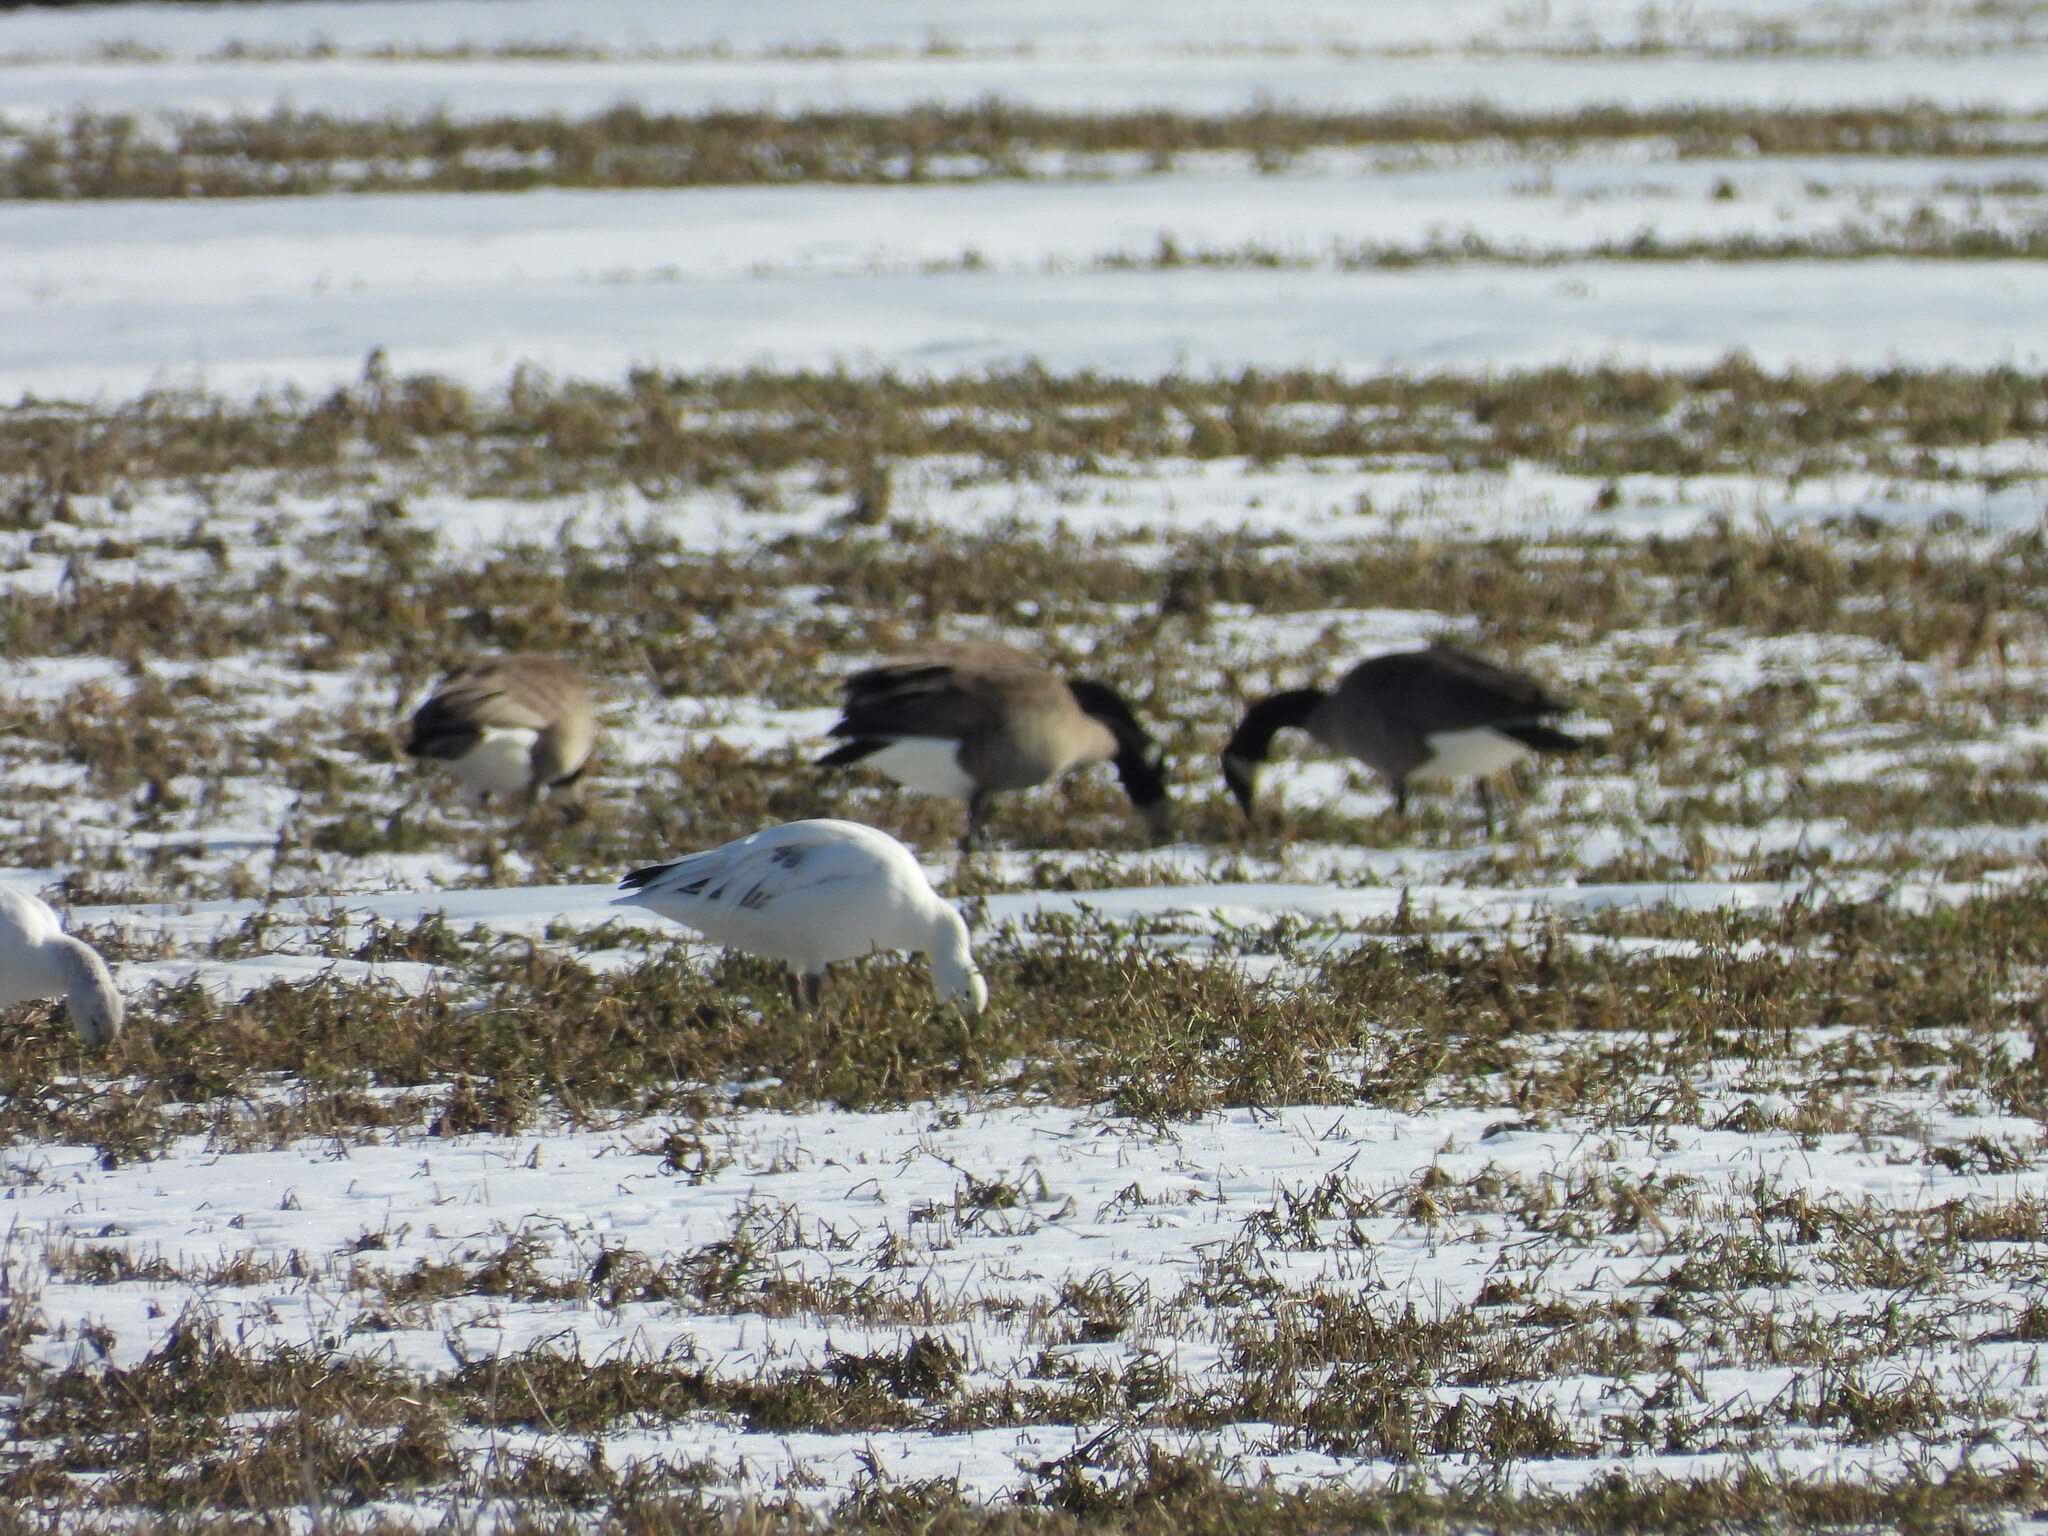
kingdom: Animalia
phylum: Chordata
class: Aves
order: Anseriformes
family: Anatidae
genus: Anser
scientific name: Anser caerulescens
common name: Snow goose
